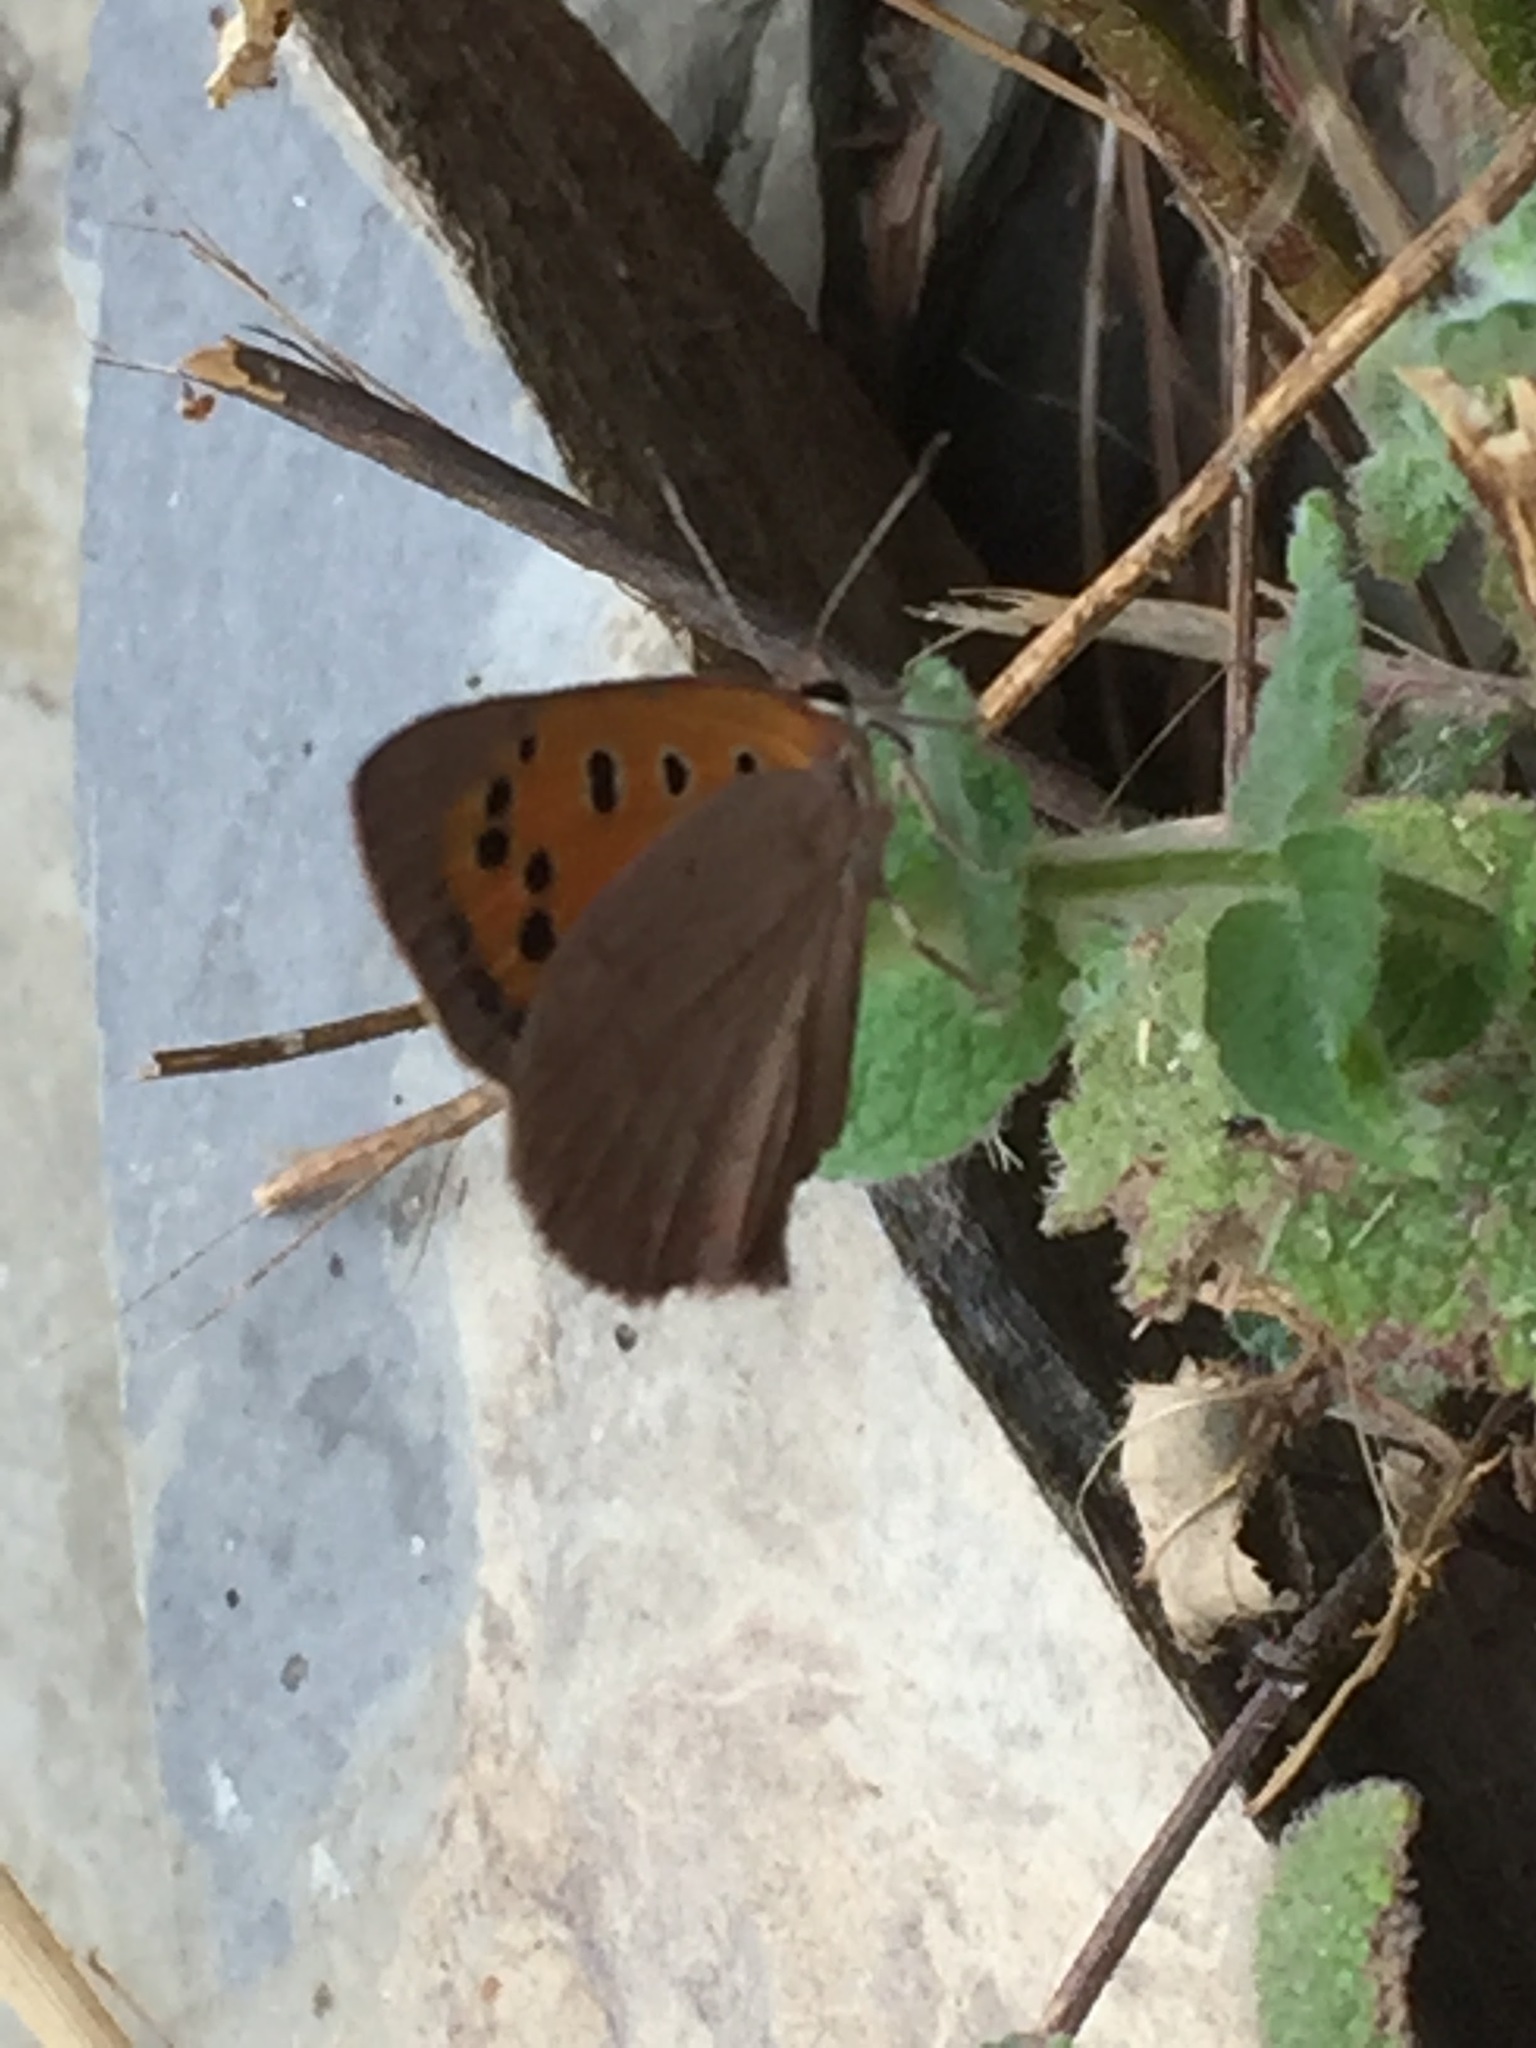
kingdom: Animalia
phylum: Arthropoda
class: Insecta
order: Lepidoptera
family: Lycaenidae
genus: Lycaena
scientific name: Lycaena phlaeas
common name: Small copper
